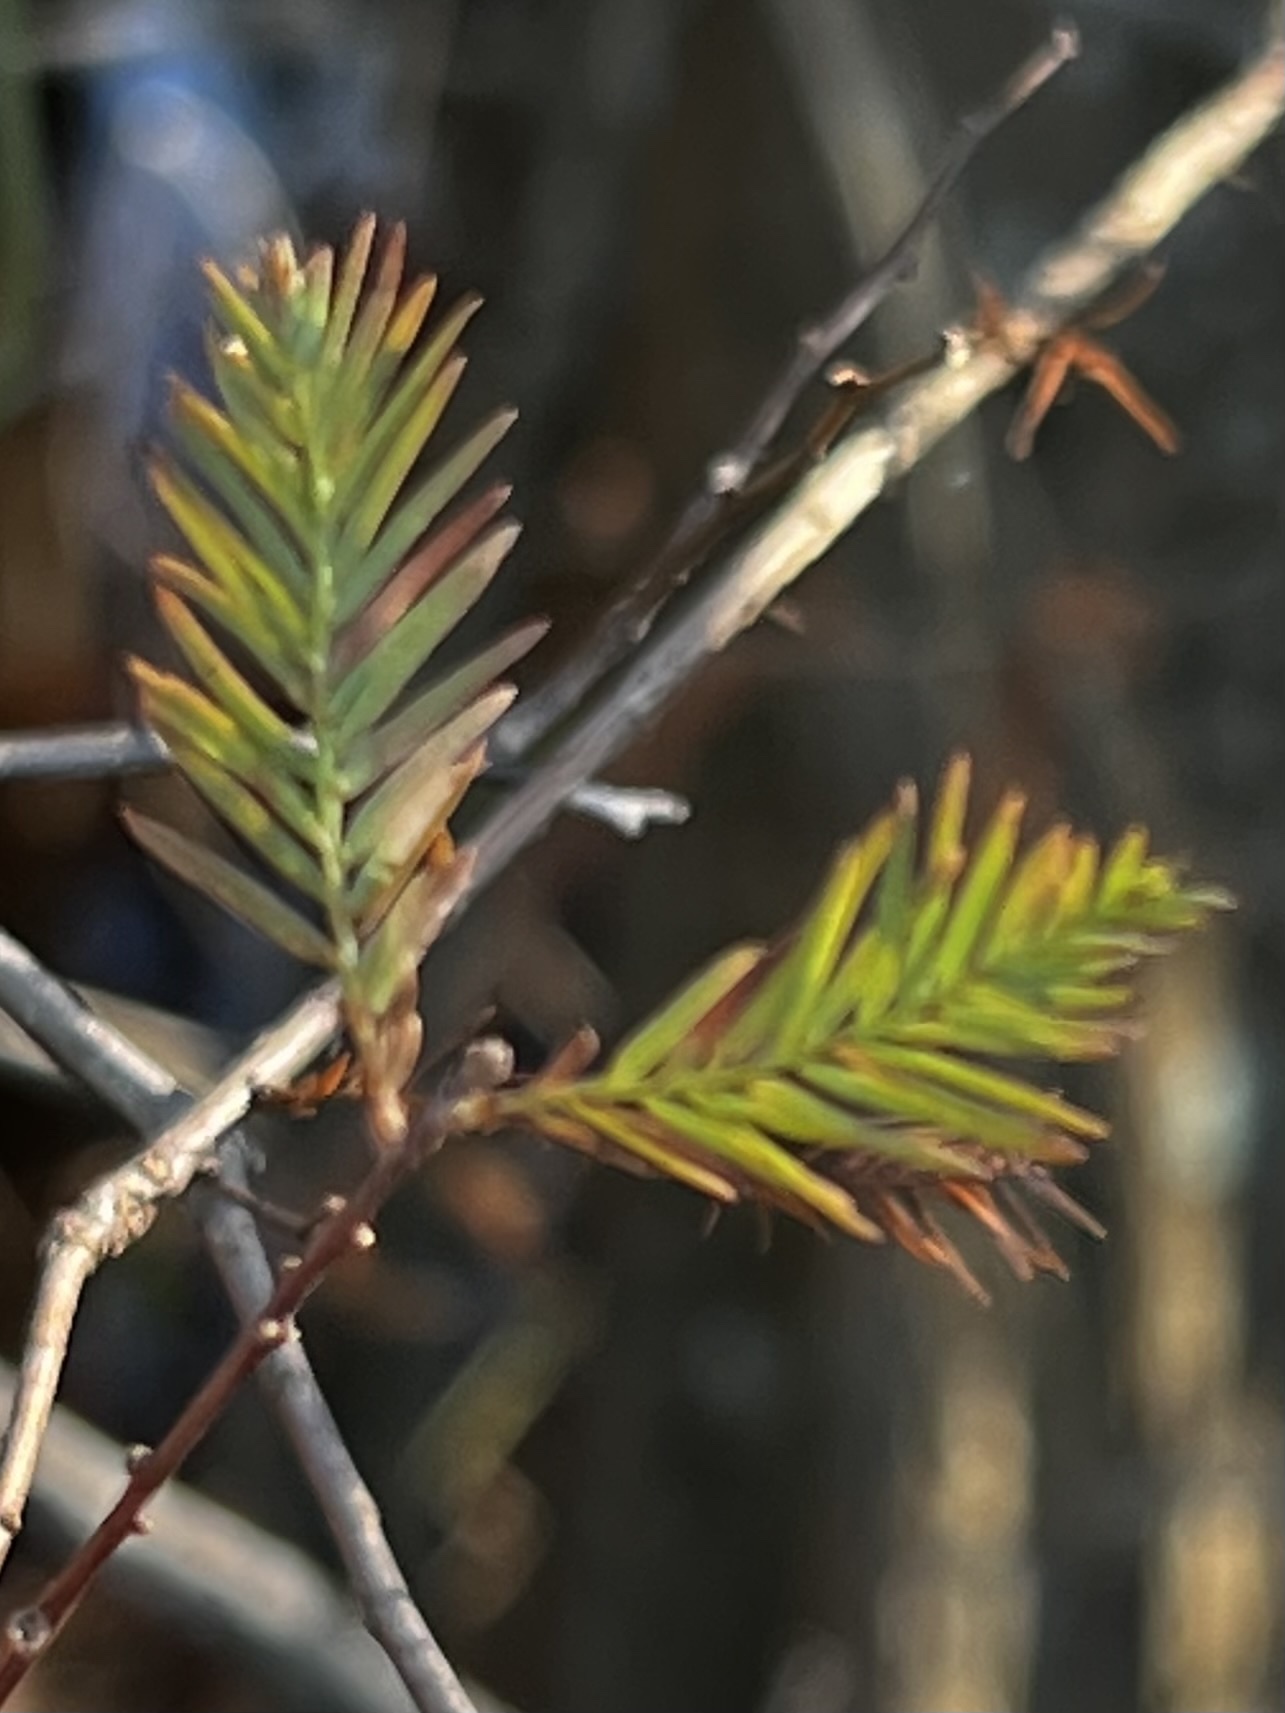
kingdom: Plantae
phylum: Tracheophyta
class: Pinopsida
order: Pinales
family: Cupressaceae
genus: Taxodium
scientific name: Taxodium distichum
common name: Bald cypress
